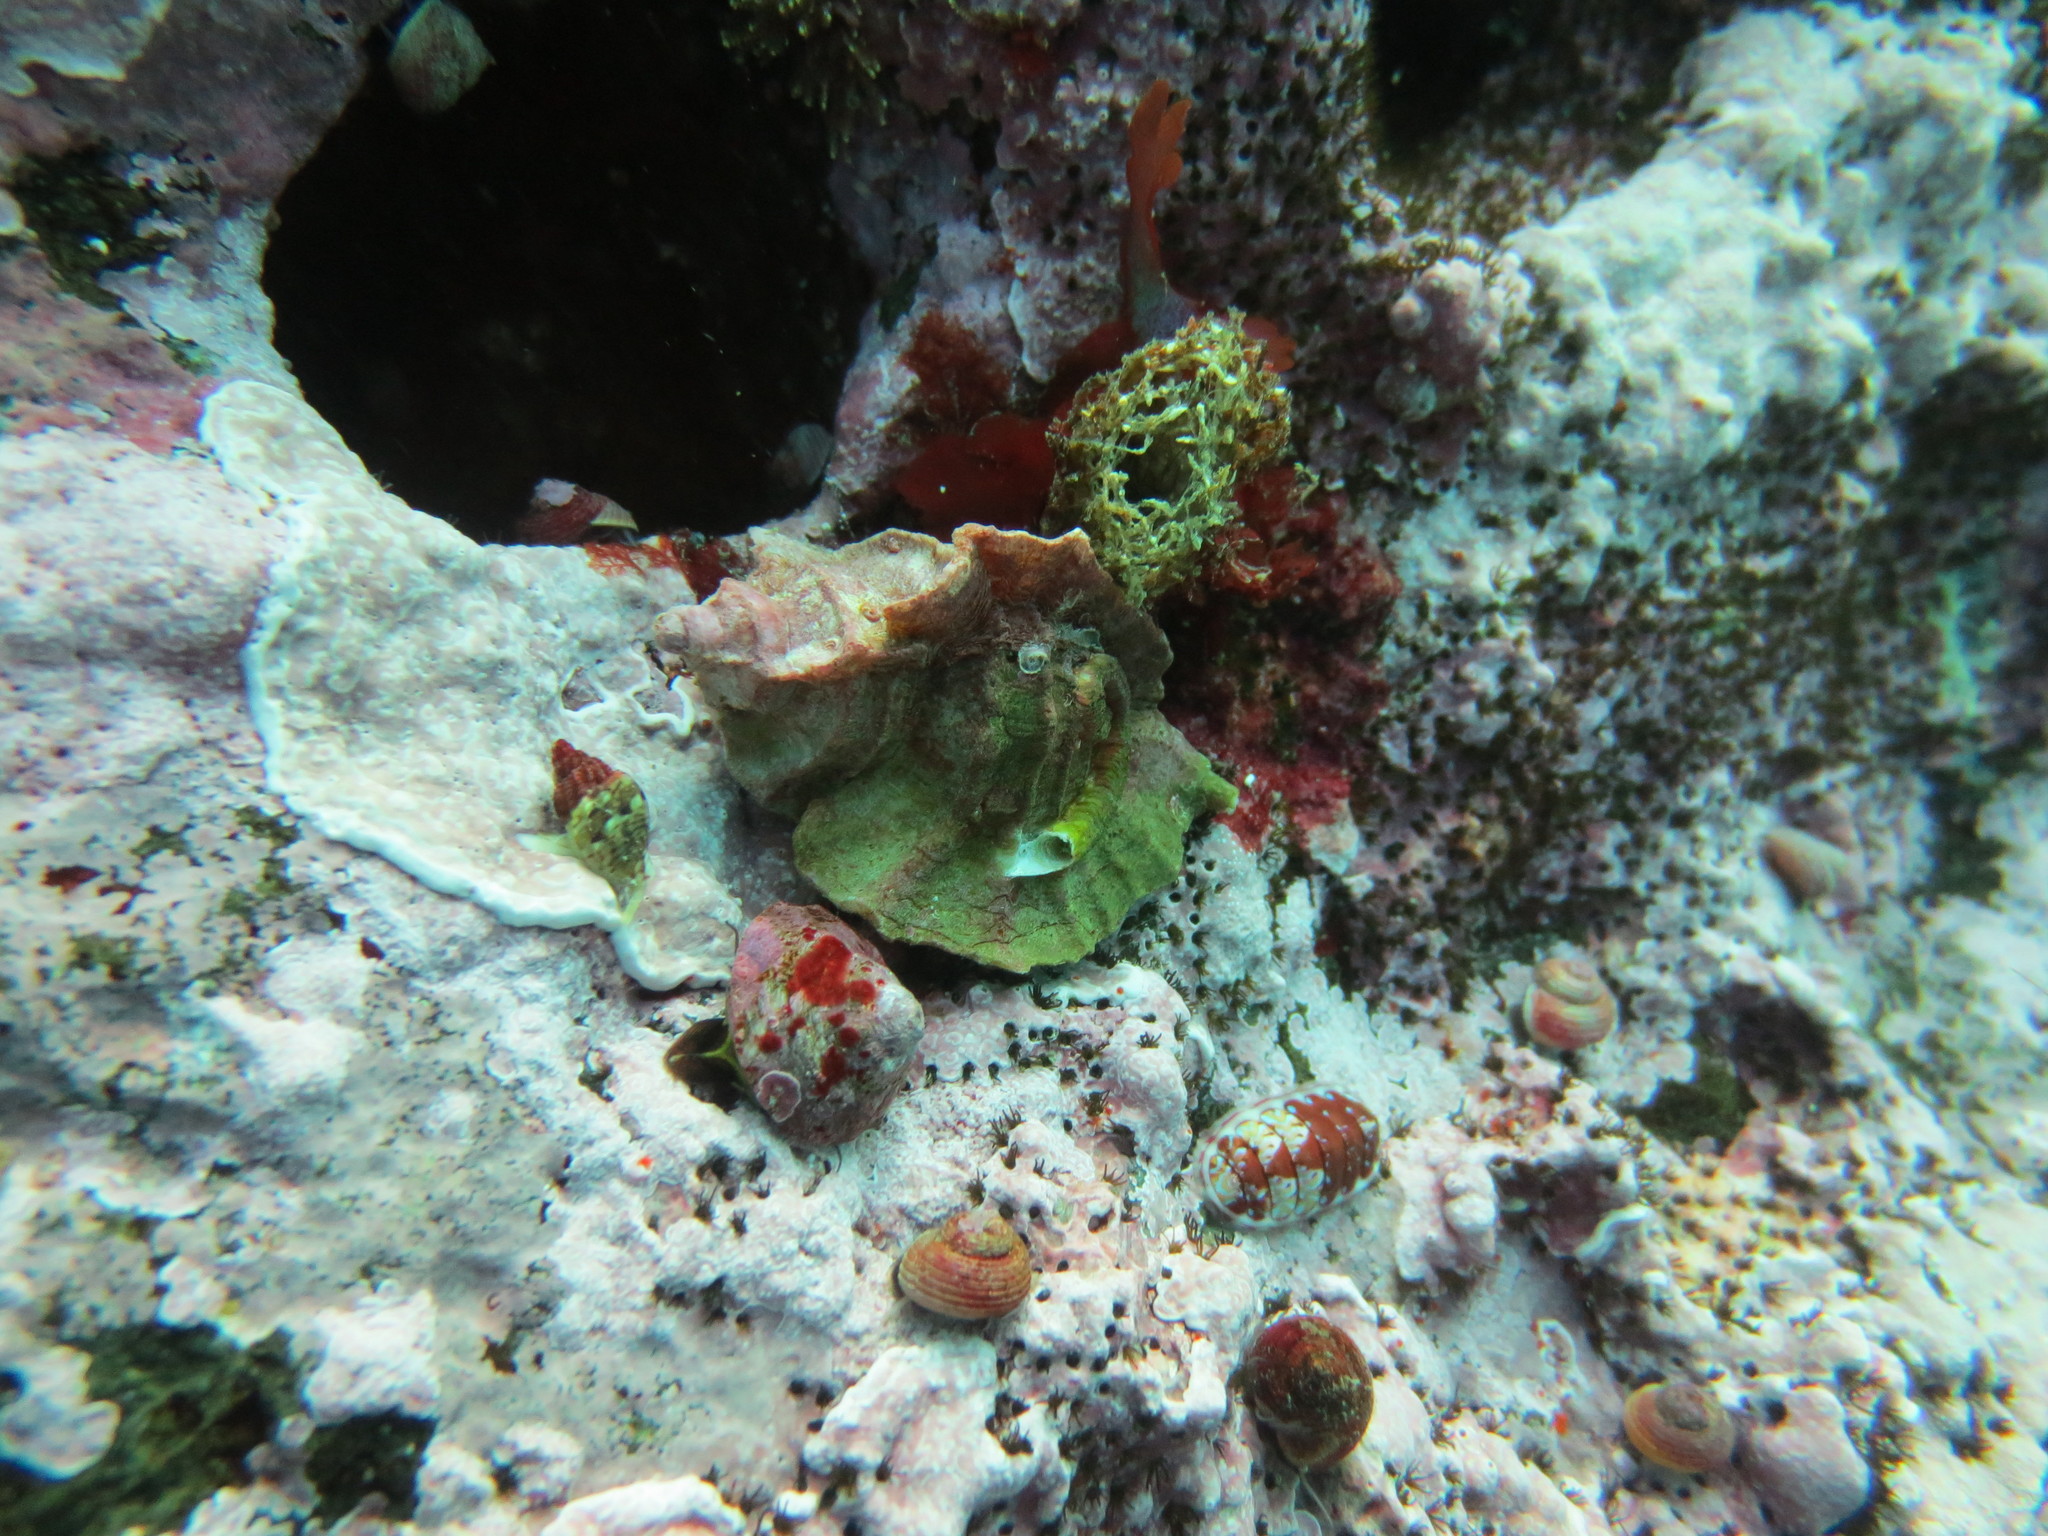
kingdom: Animalia
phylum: Mollusca
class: Gastropoda
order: Trochida
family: Margaritidae
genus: Margarites
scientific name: Margarites pupillus
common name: Puppet margarite
